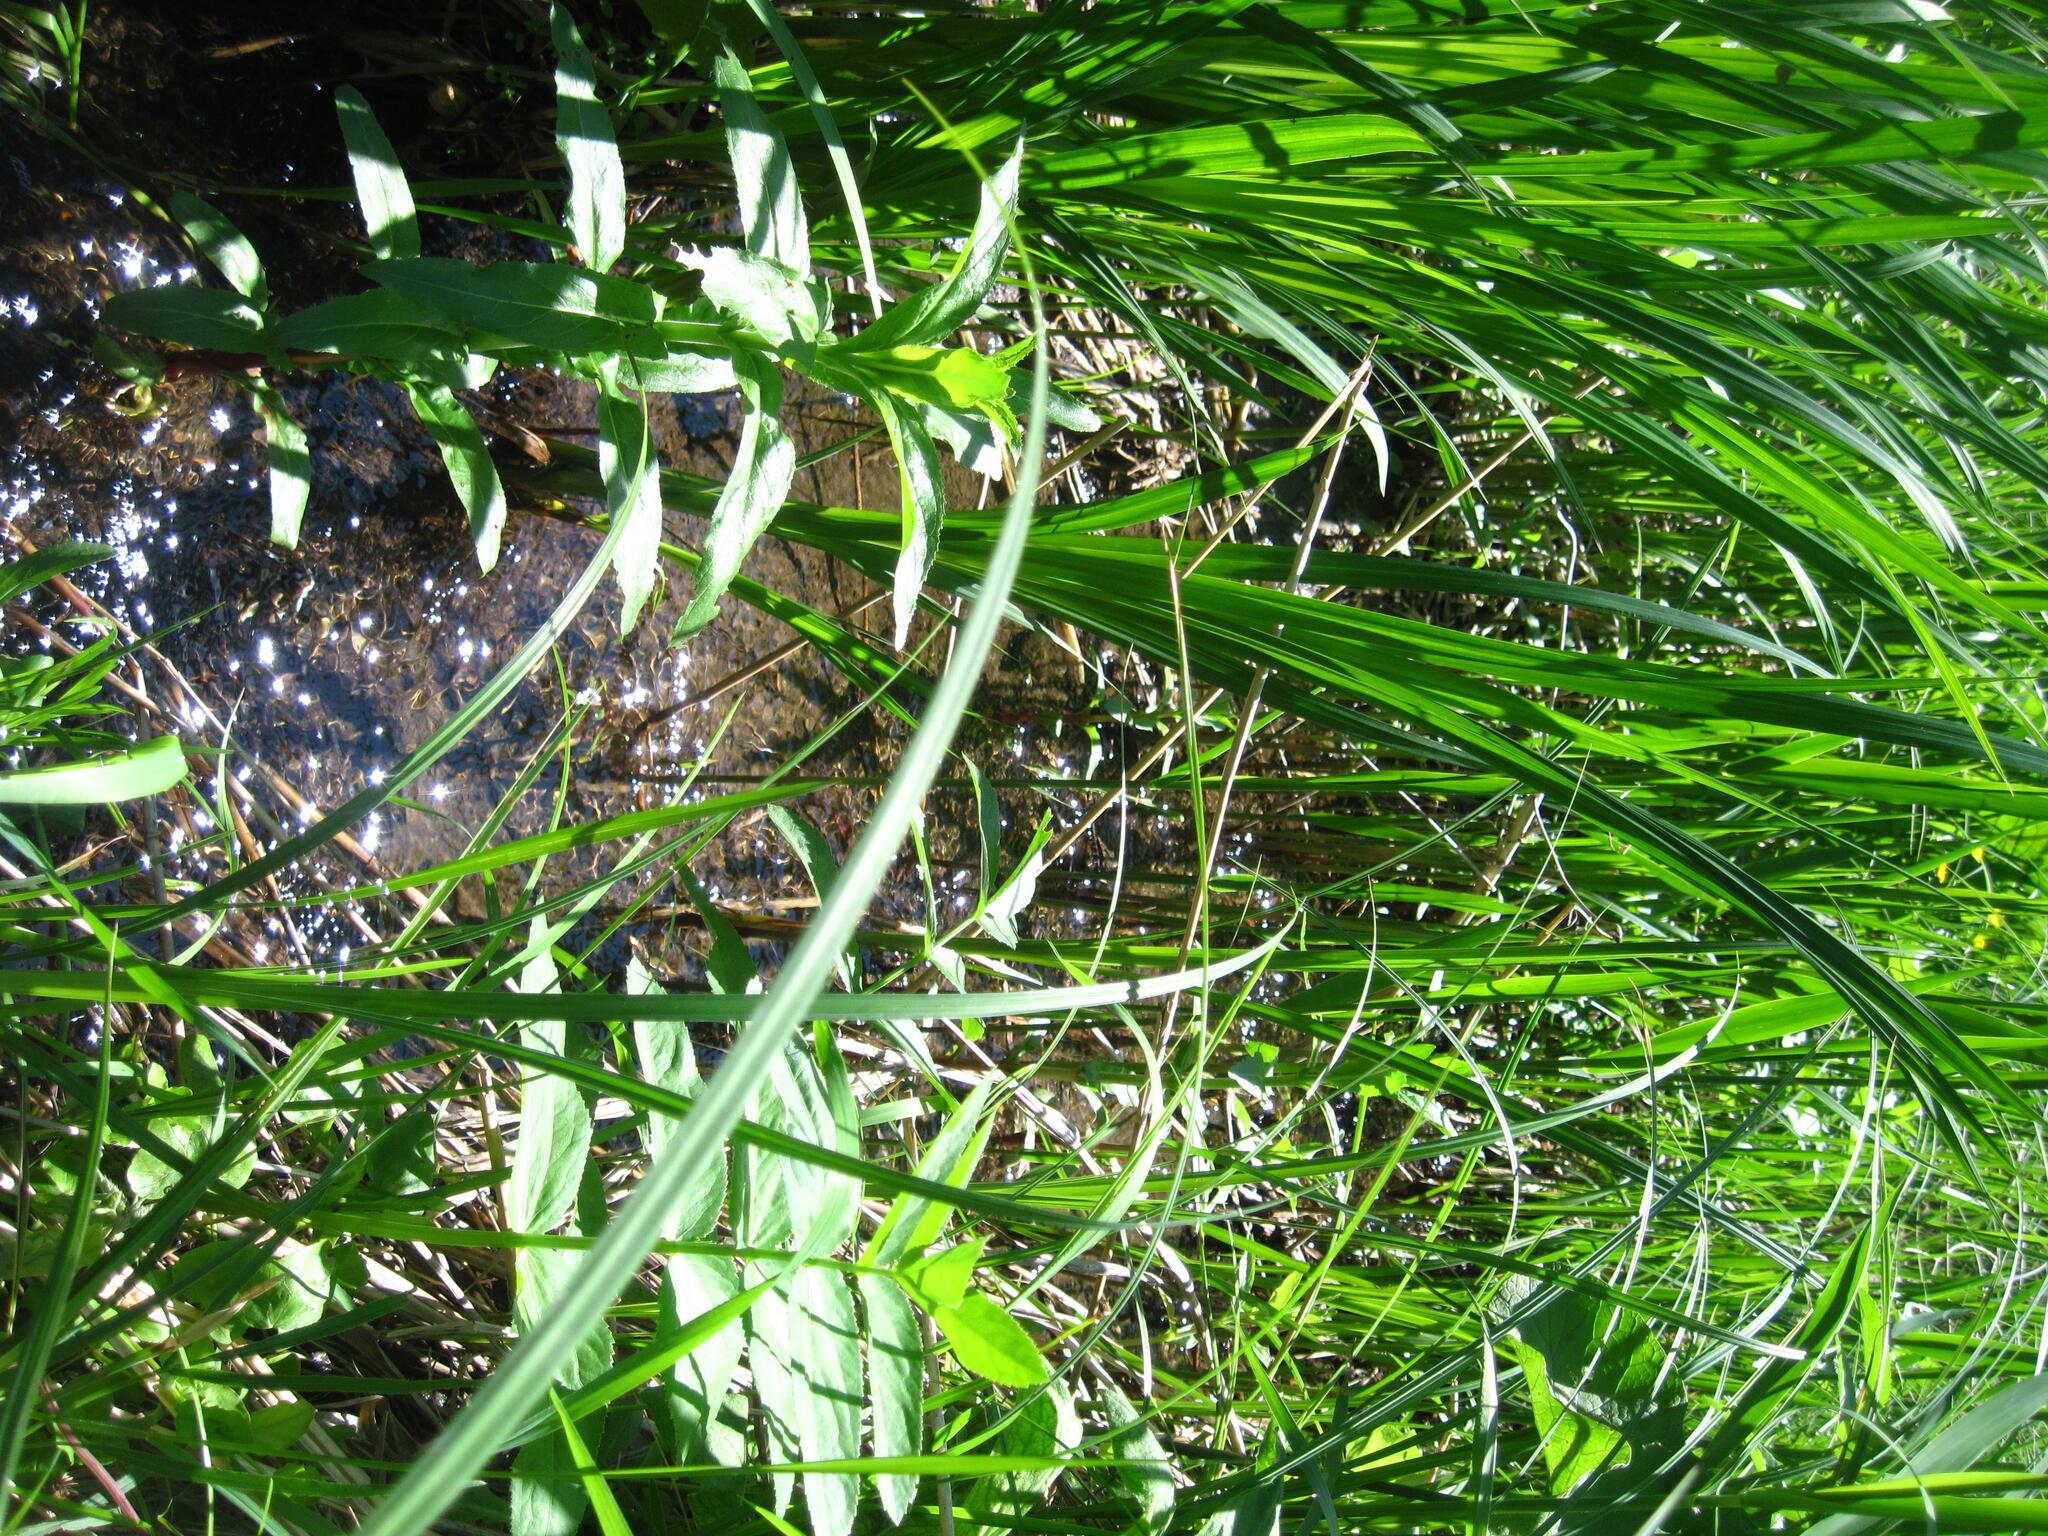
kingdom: Plantae
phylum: Tracheophyta
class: Magnoliopsida
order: Apiales
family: Apiaceae
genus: Sium
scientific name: Sium latifolium
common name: Greater water-parsnip
